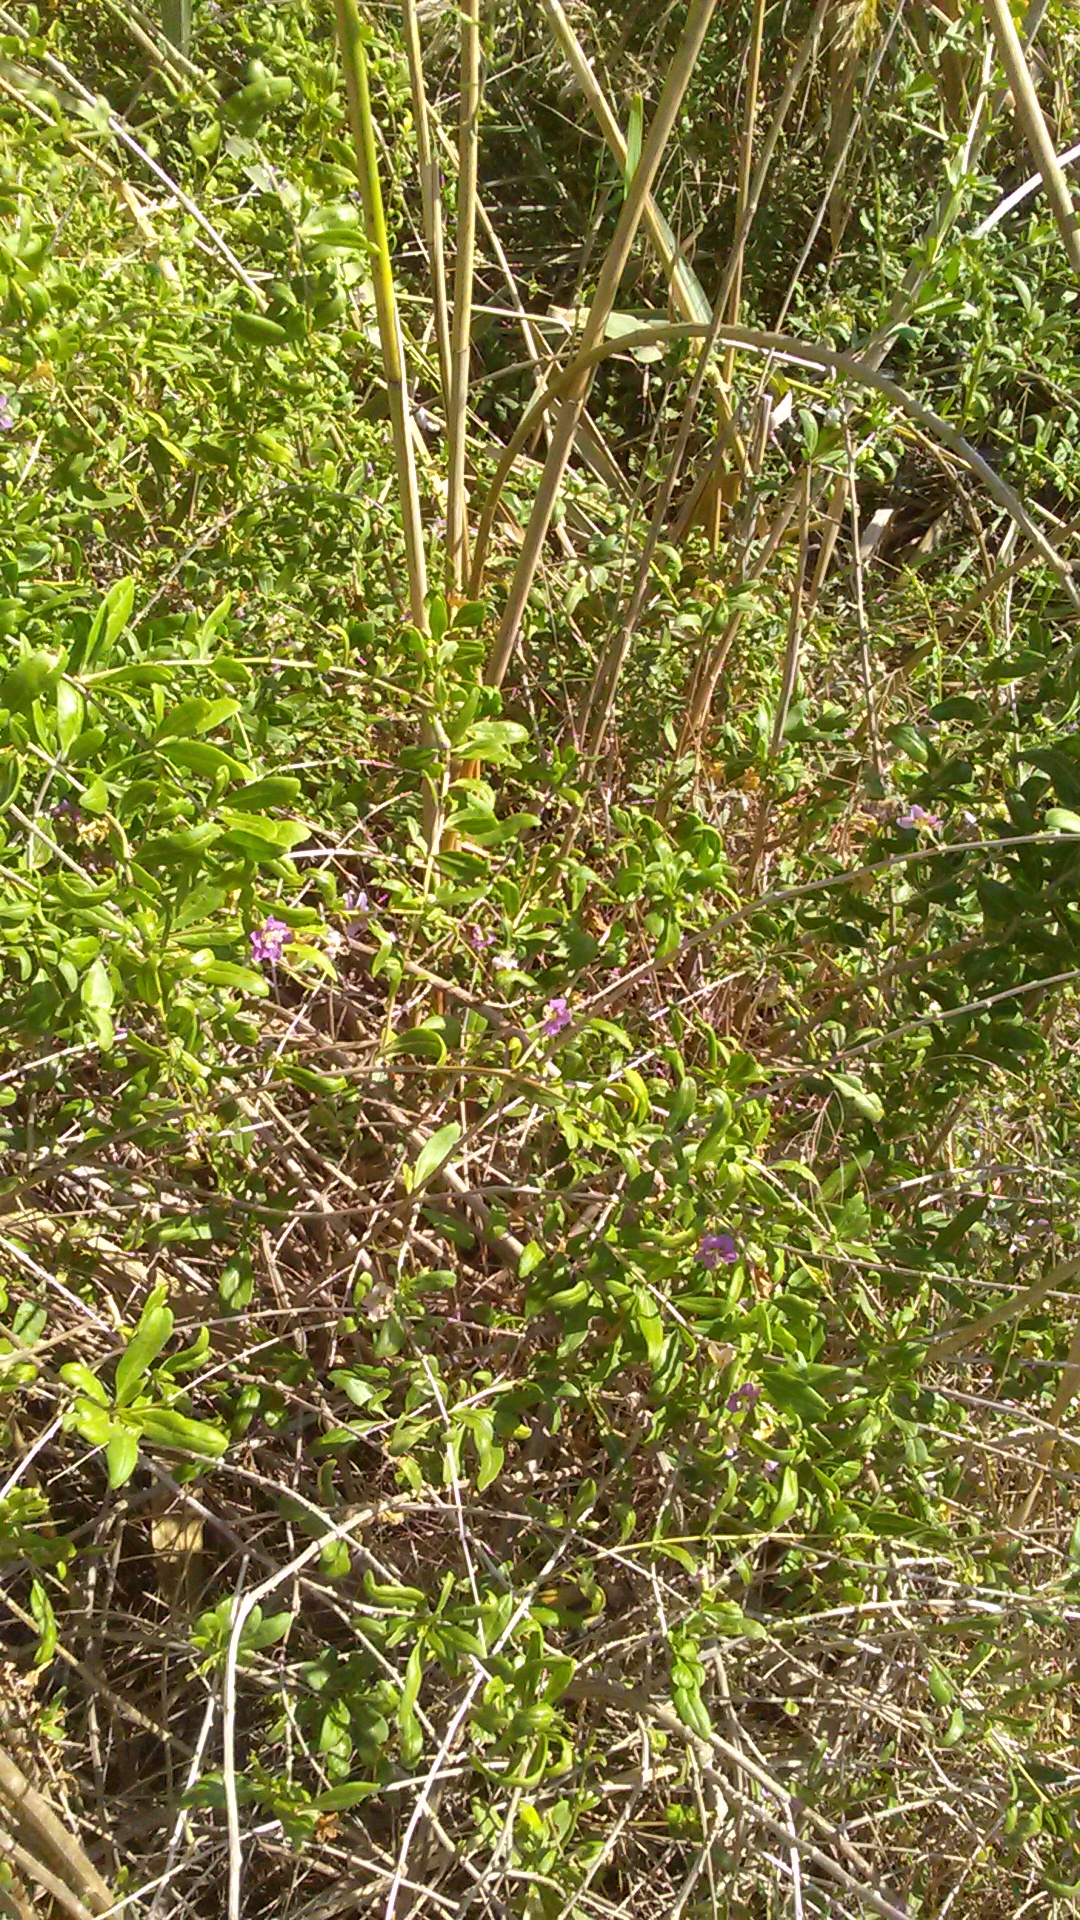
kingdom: Plantae
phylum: Tracheophyta
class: Magnoliopsida
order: Solanales
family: Solanaceae
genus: Lycium
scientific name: Lycium barbarum
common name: Duke of argyll's teaplant
